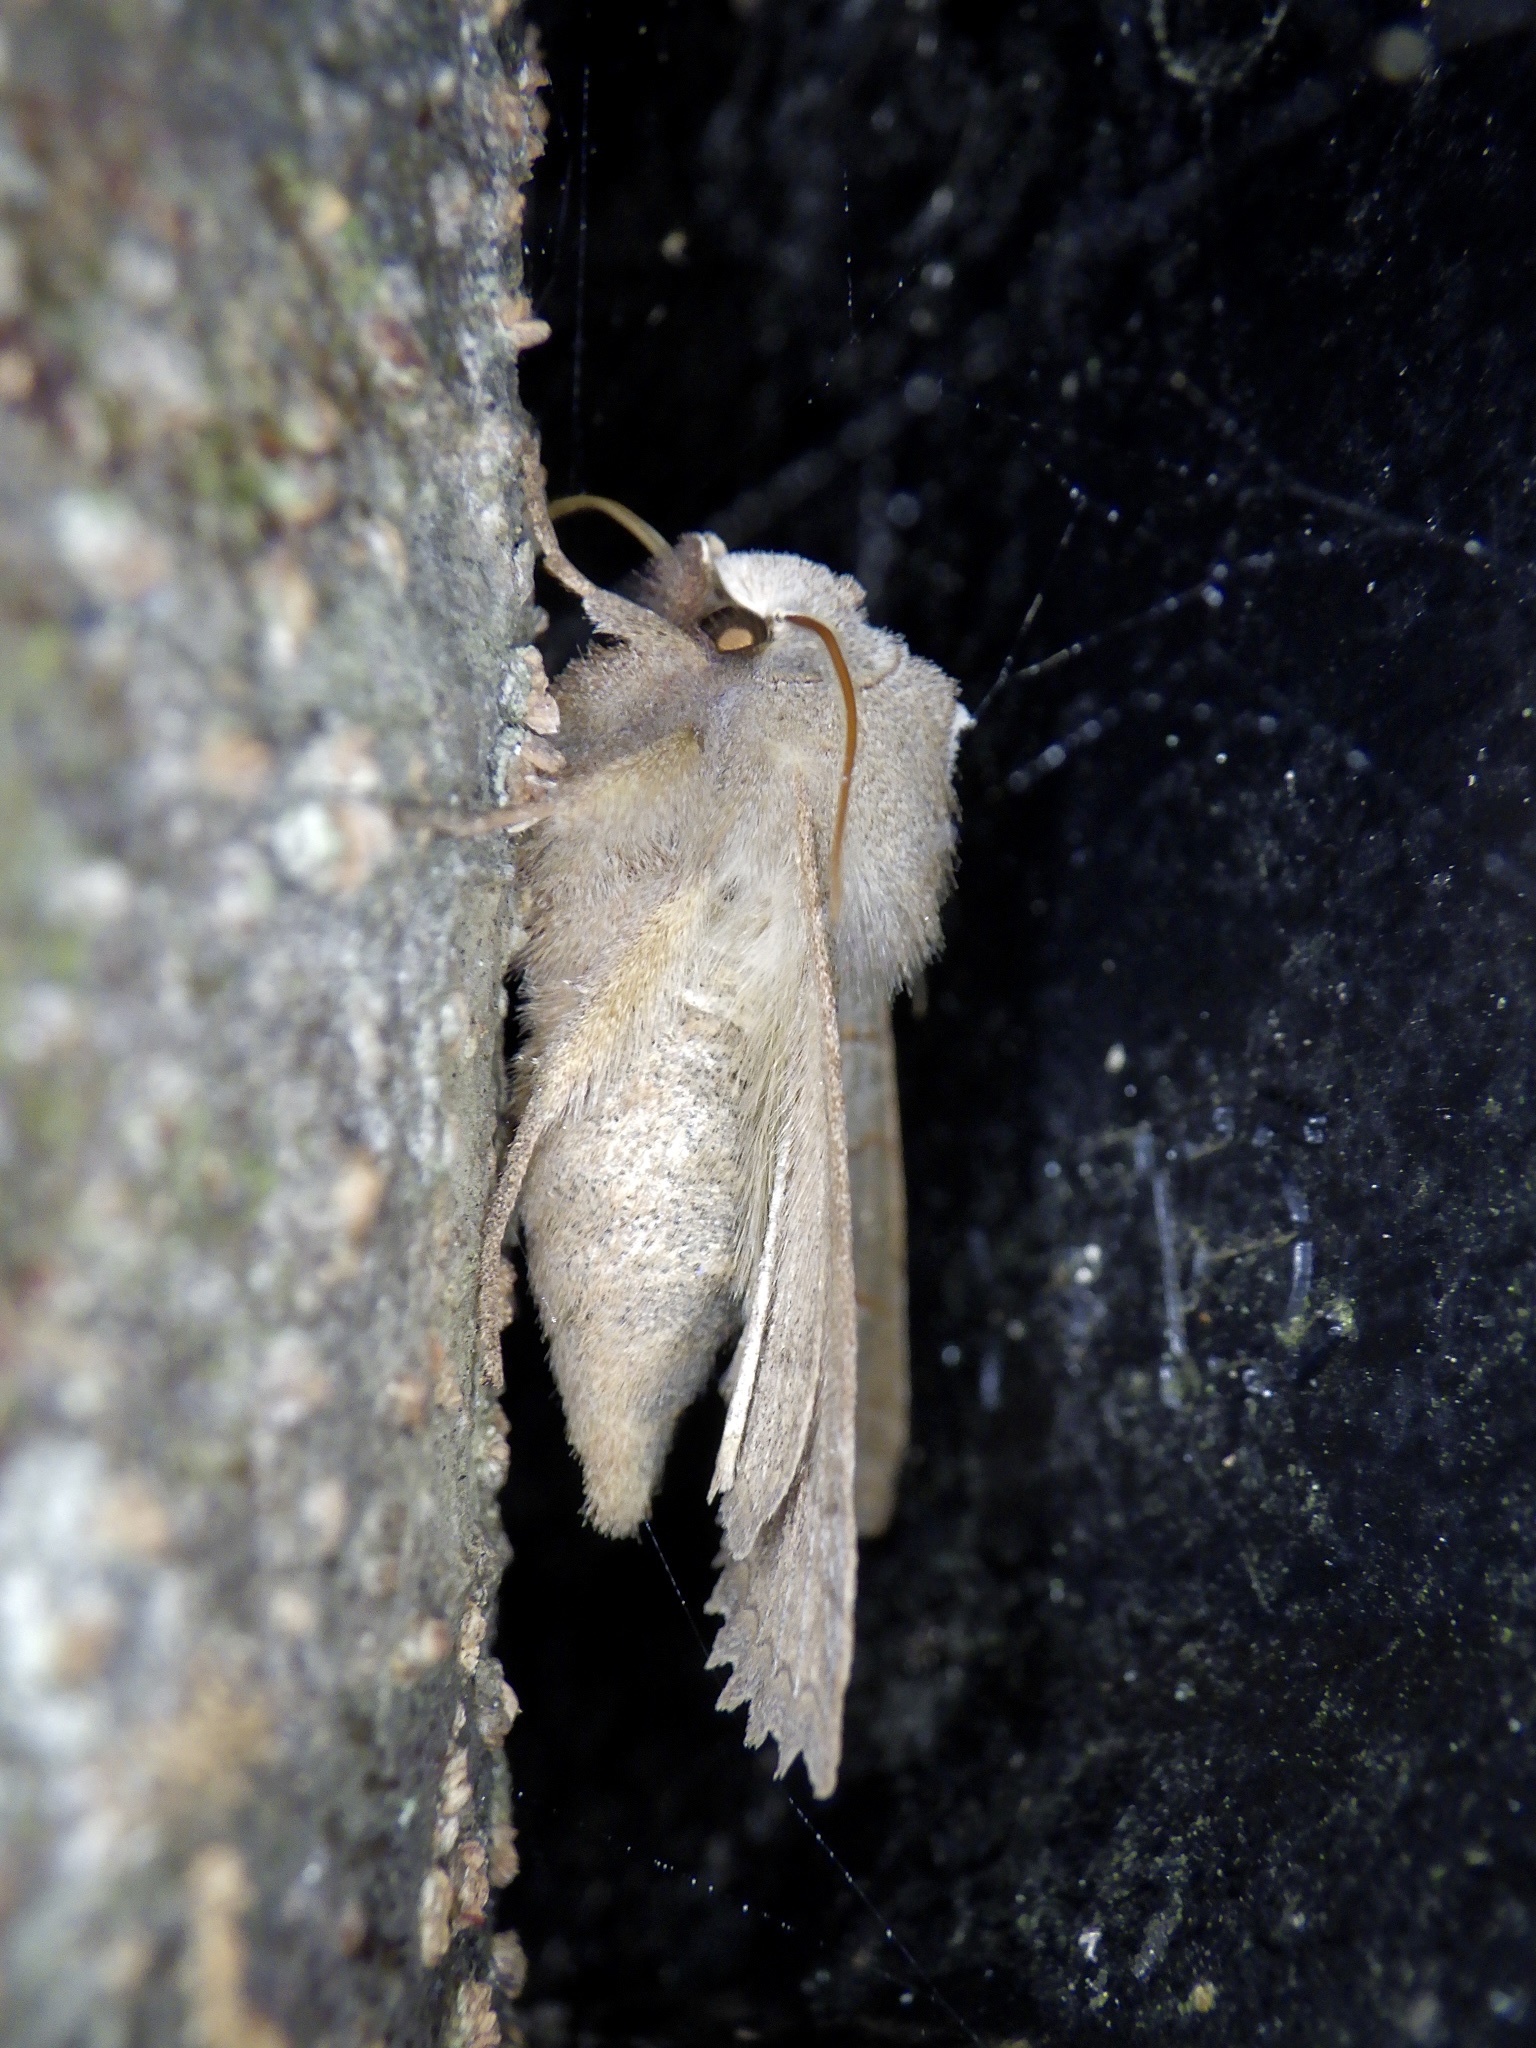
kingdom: Animalia
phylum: Arthropoda
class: Insecta
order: Lepidoptera
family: Noctuidae
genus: Eupsilia
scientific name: Eupsilia quadrilinea
